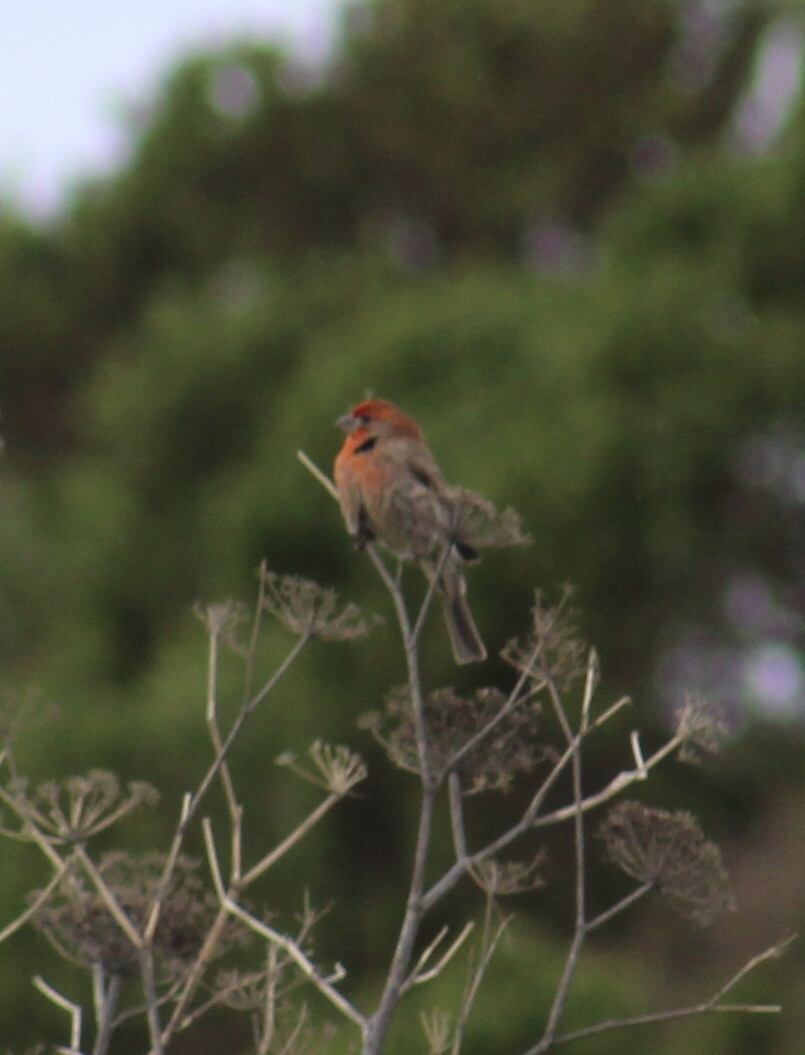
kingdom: Animalia
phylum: Chordata
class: Aves
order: Passeriformes
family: Fringillidae
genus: Haemorhous
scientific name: Haemorhous mexicanus
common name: House finch
